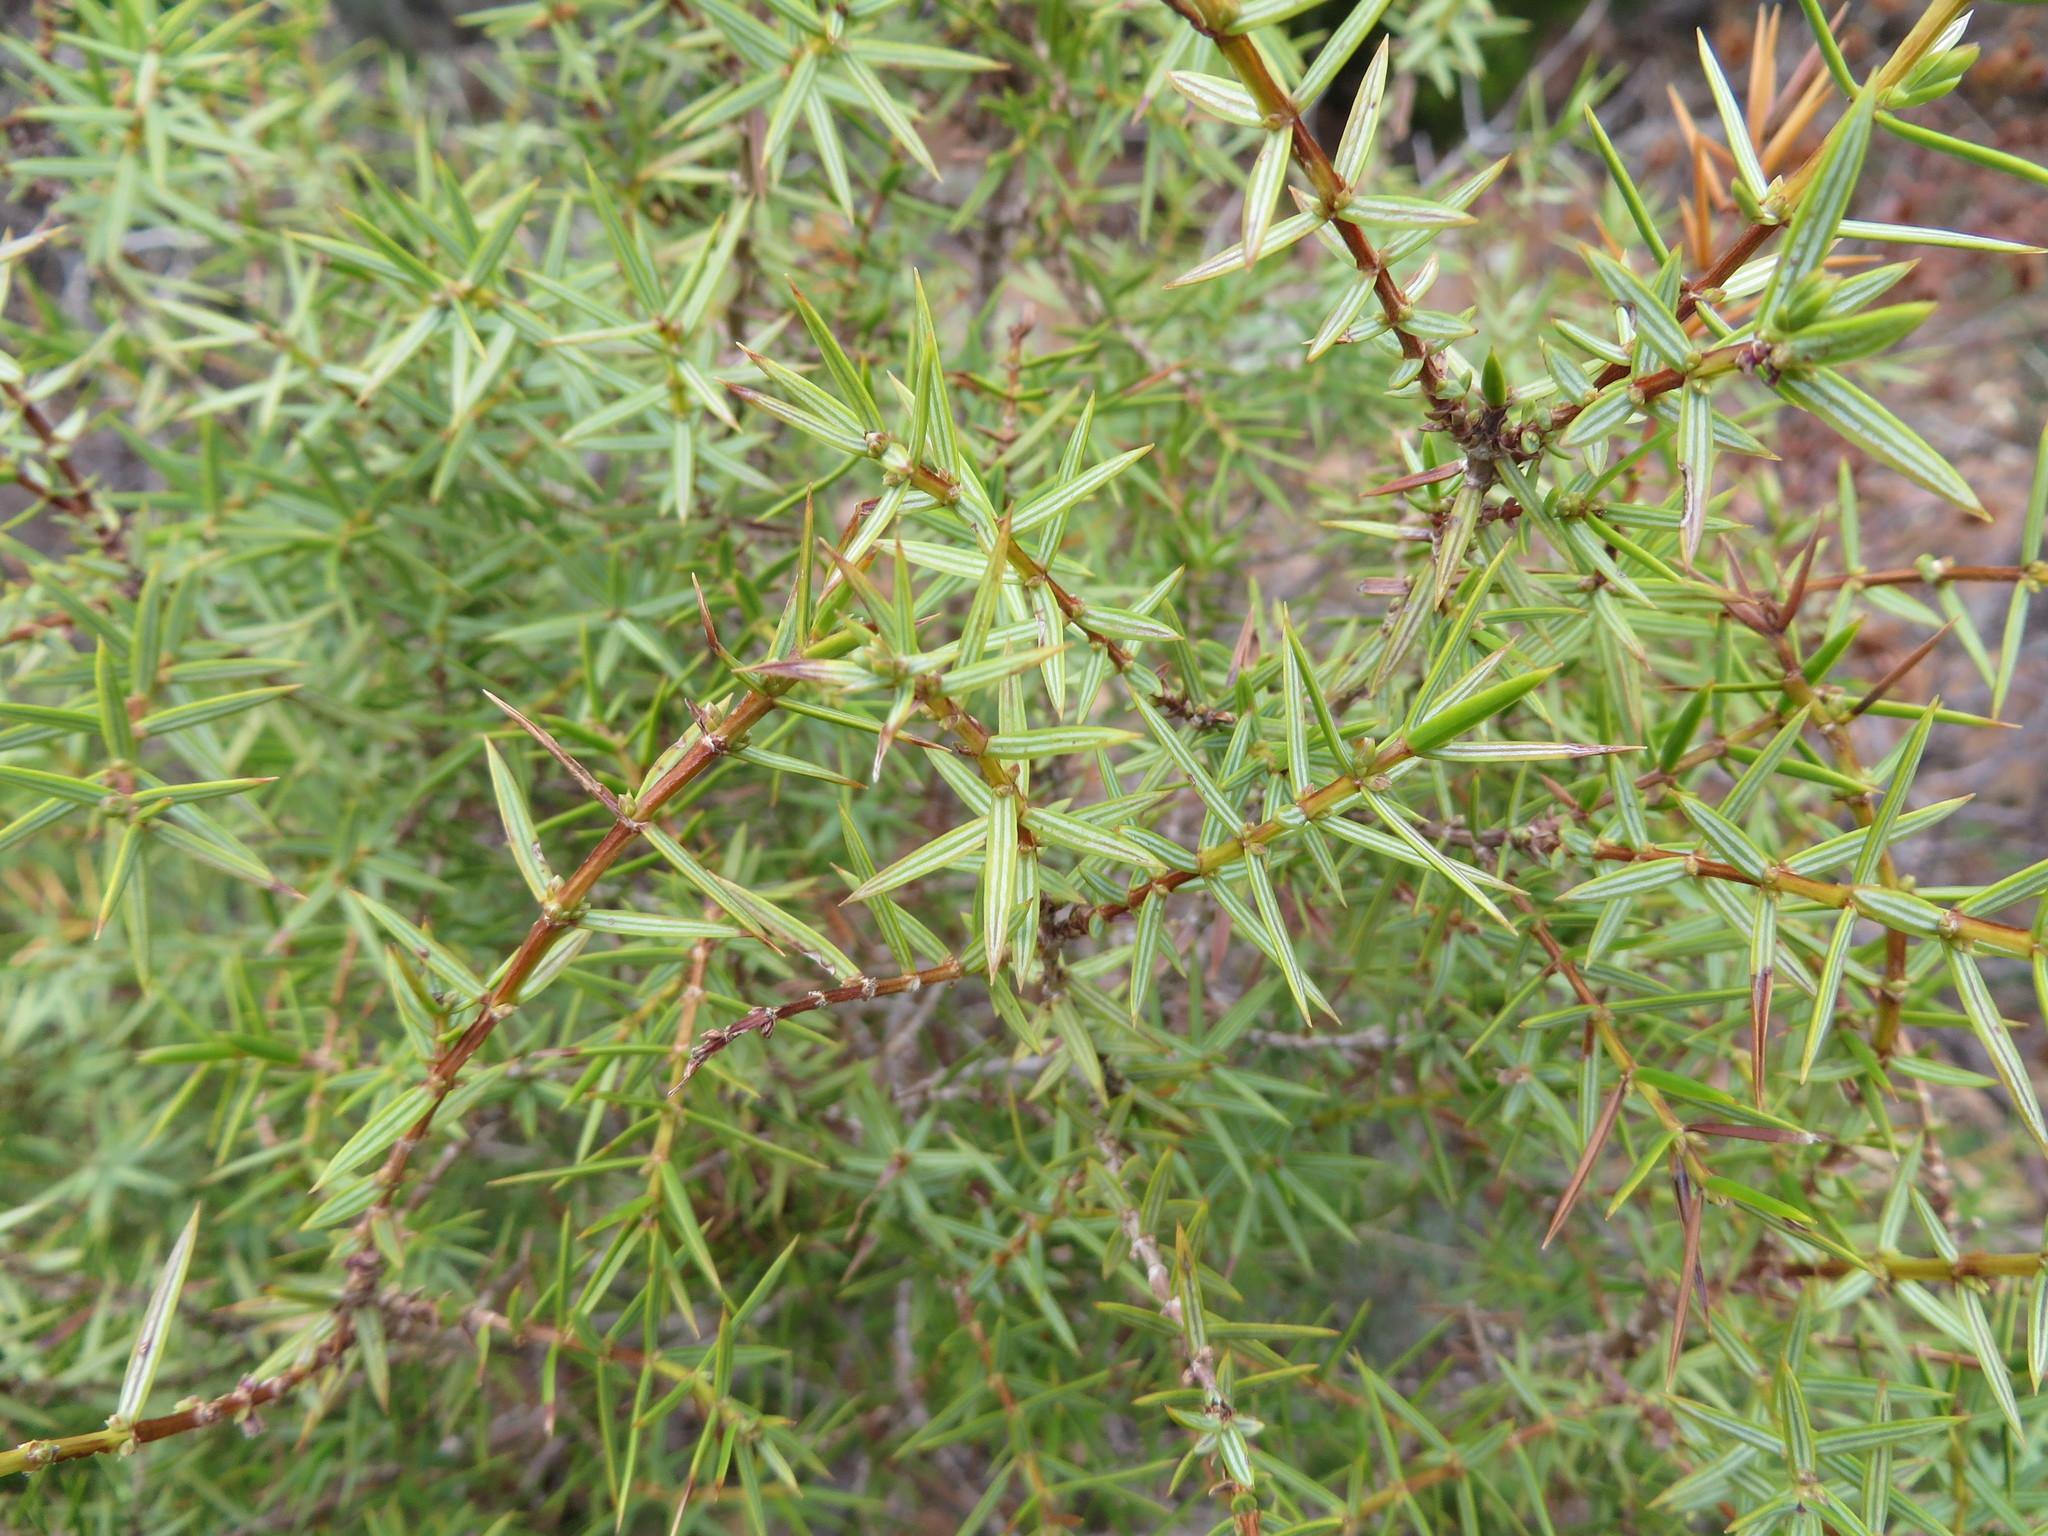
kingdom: Plantae
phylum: Tracheophyta
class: Pinopsida
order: Pinales
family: Cupressaceae
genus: Juniperus
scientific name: Juniperus oxycedrus
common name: Prickly juniper
